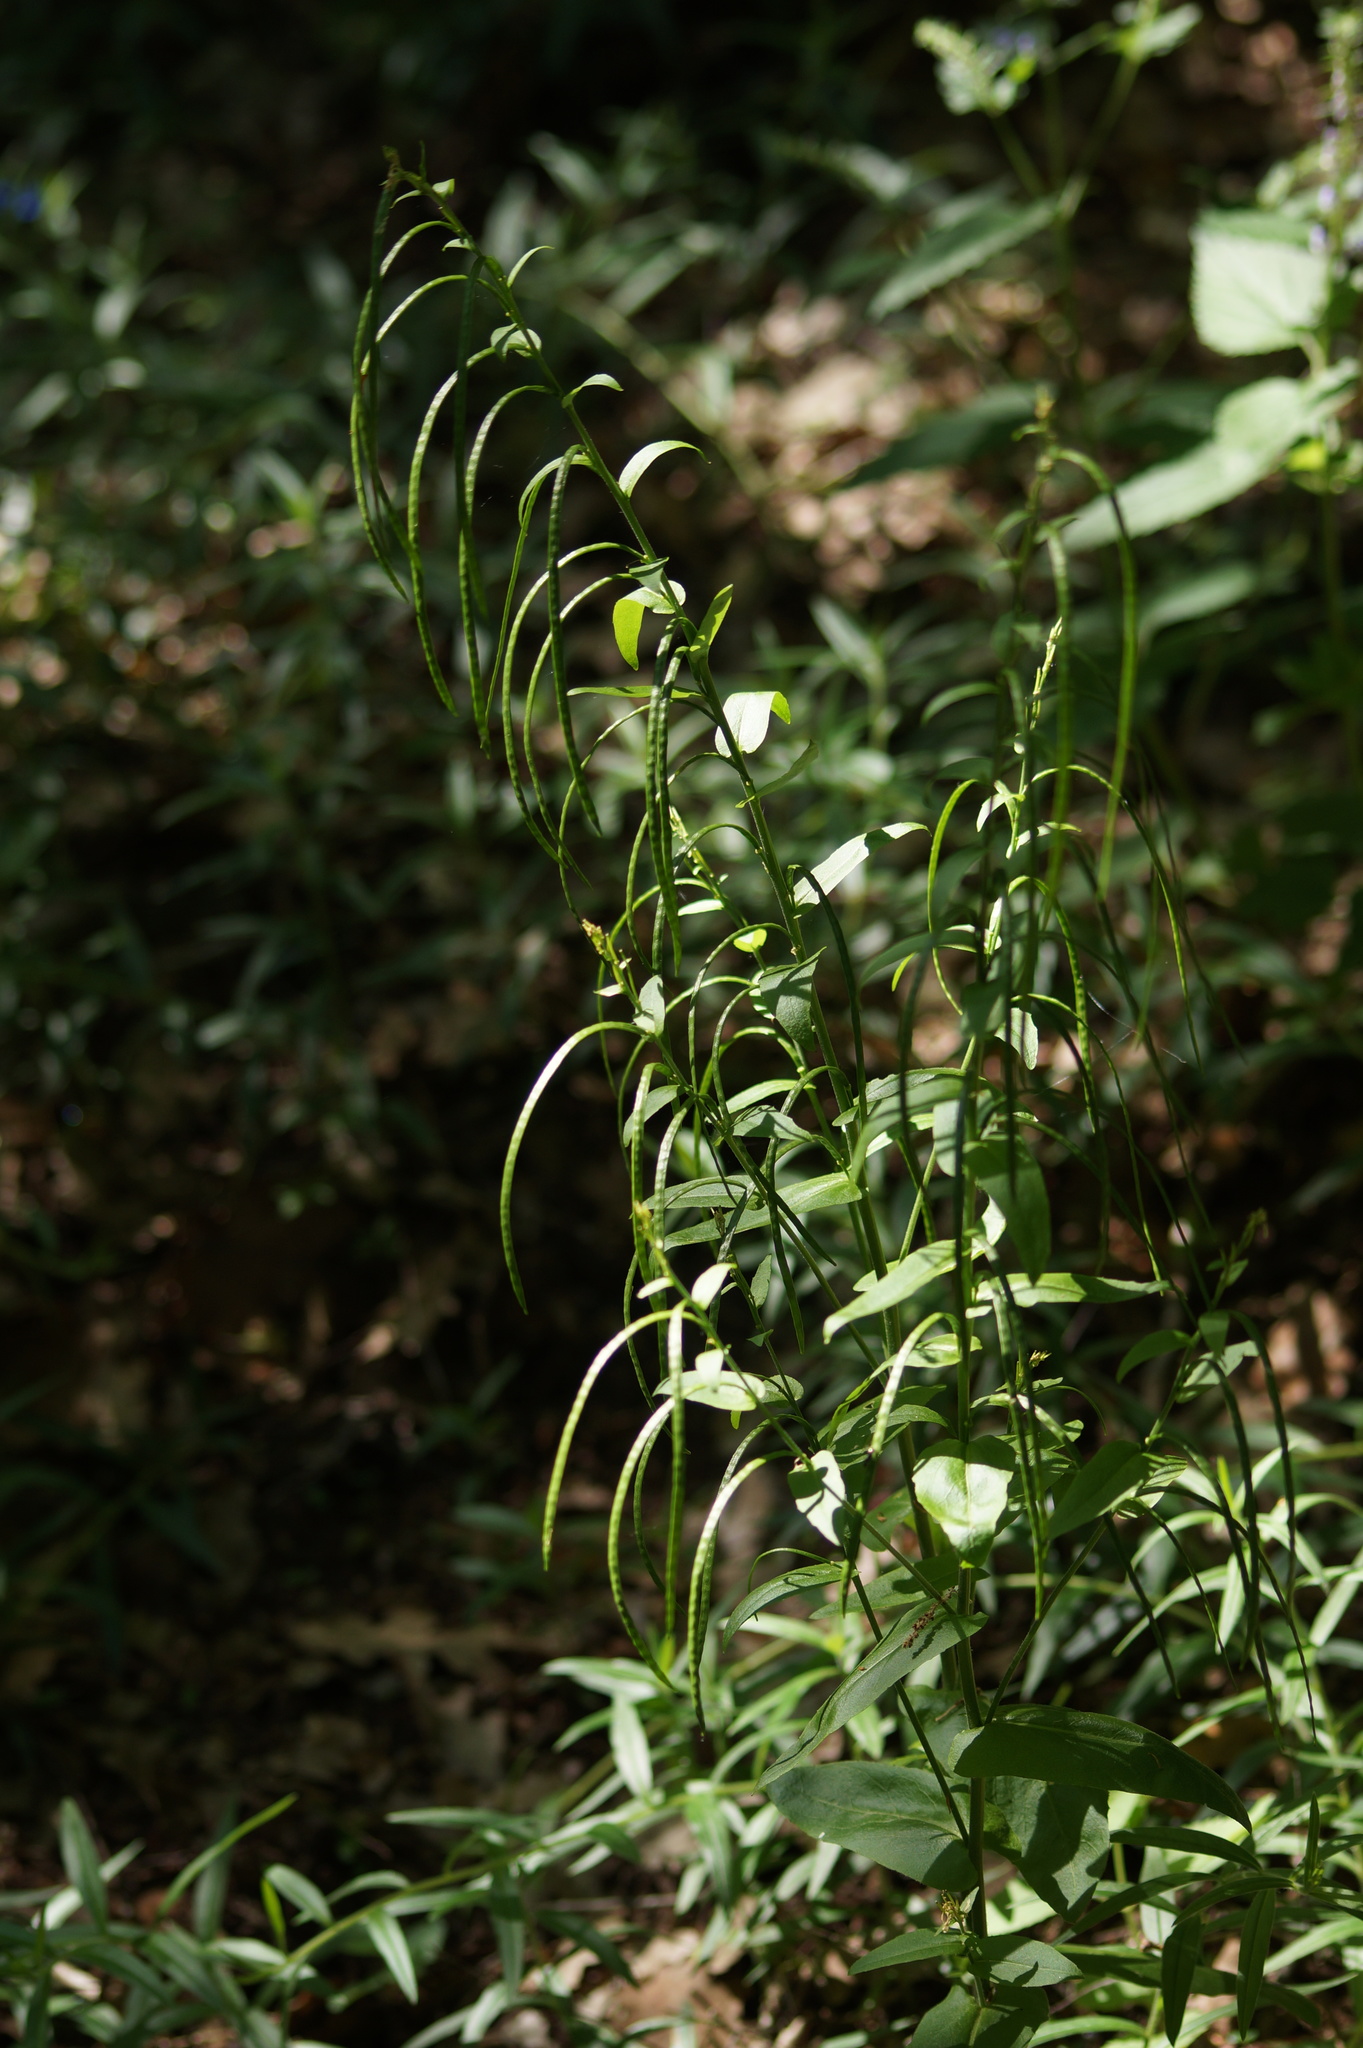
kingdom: Plantae
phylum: Tracheophyta
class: Magnoliopsida
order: Brassicales
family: Brassicaceae
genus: Pseudoturritis
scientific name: Pseudoturritis turrita
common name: Tower cress
